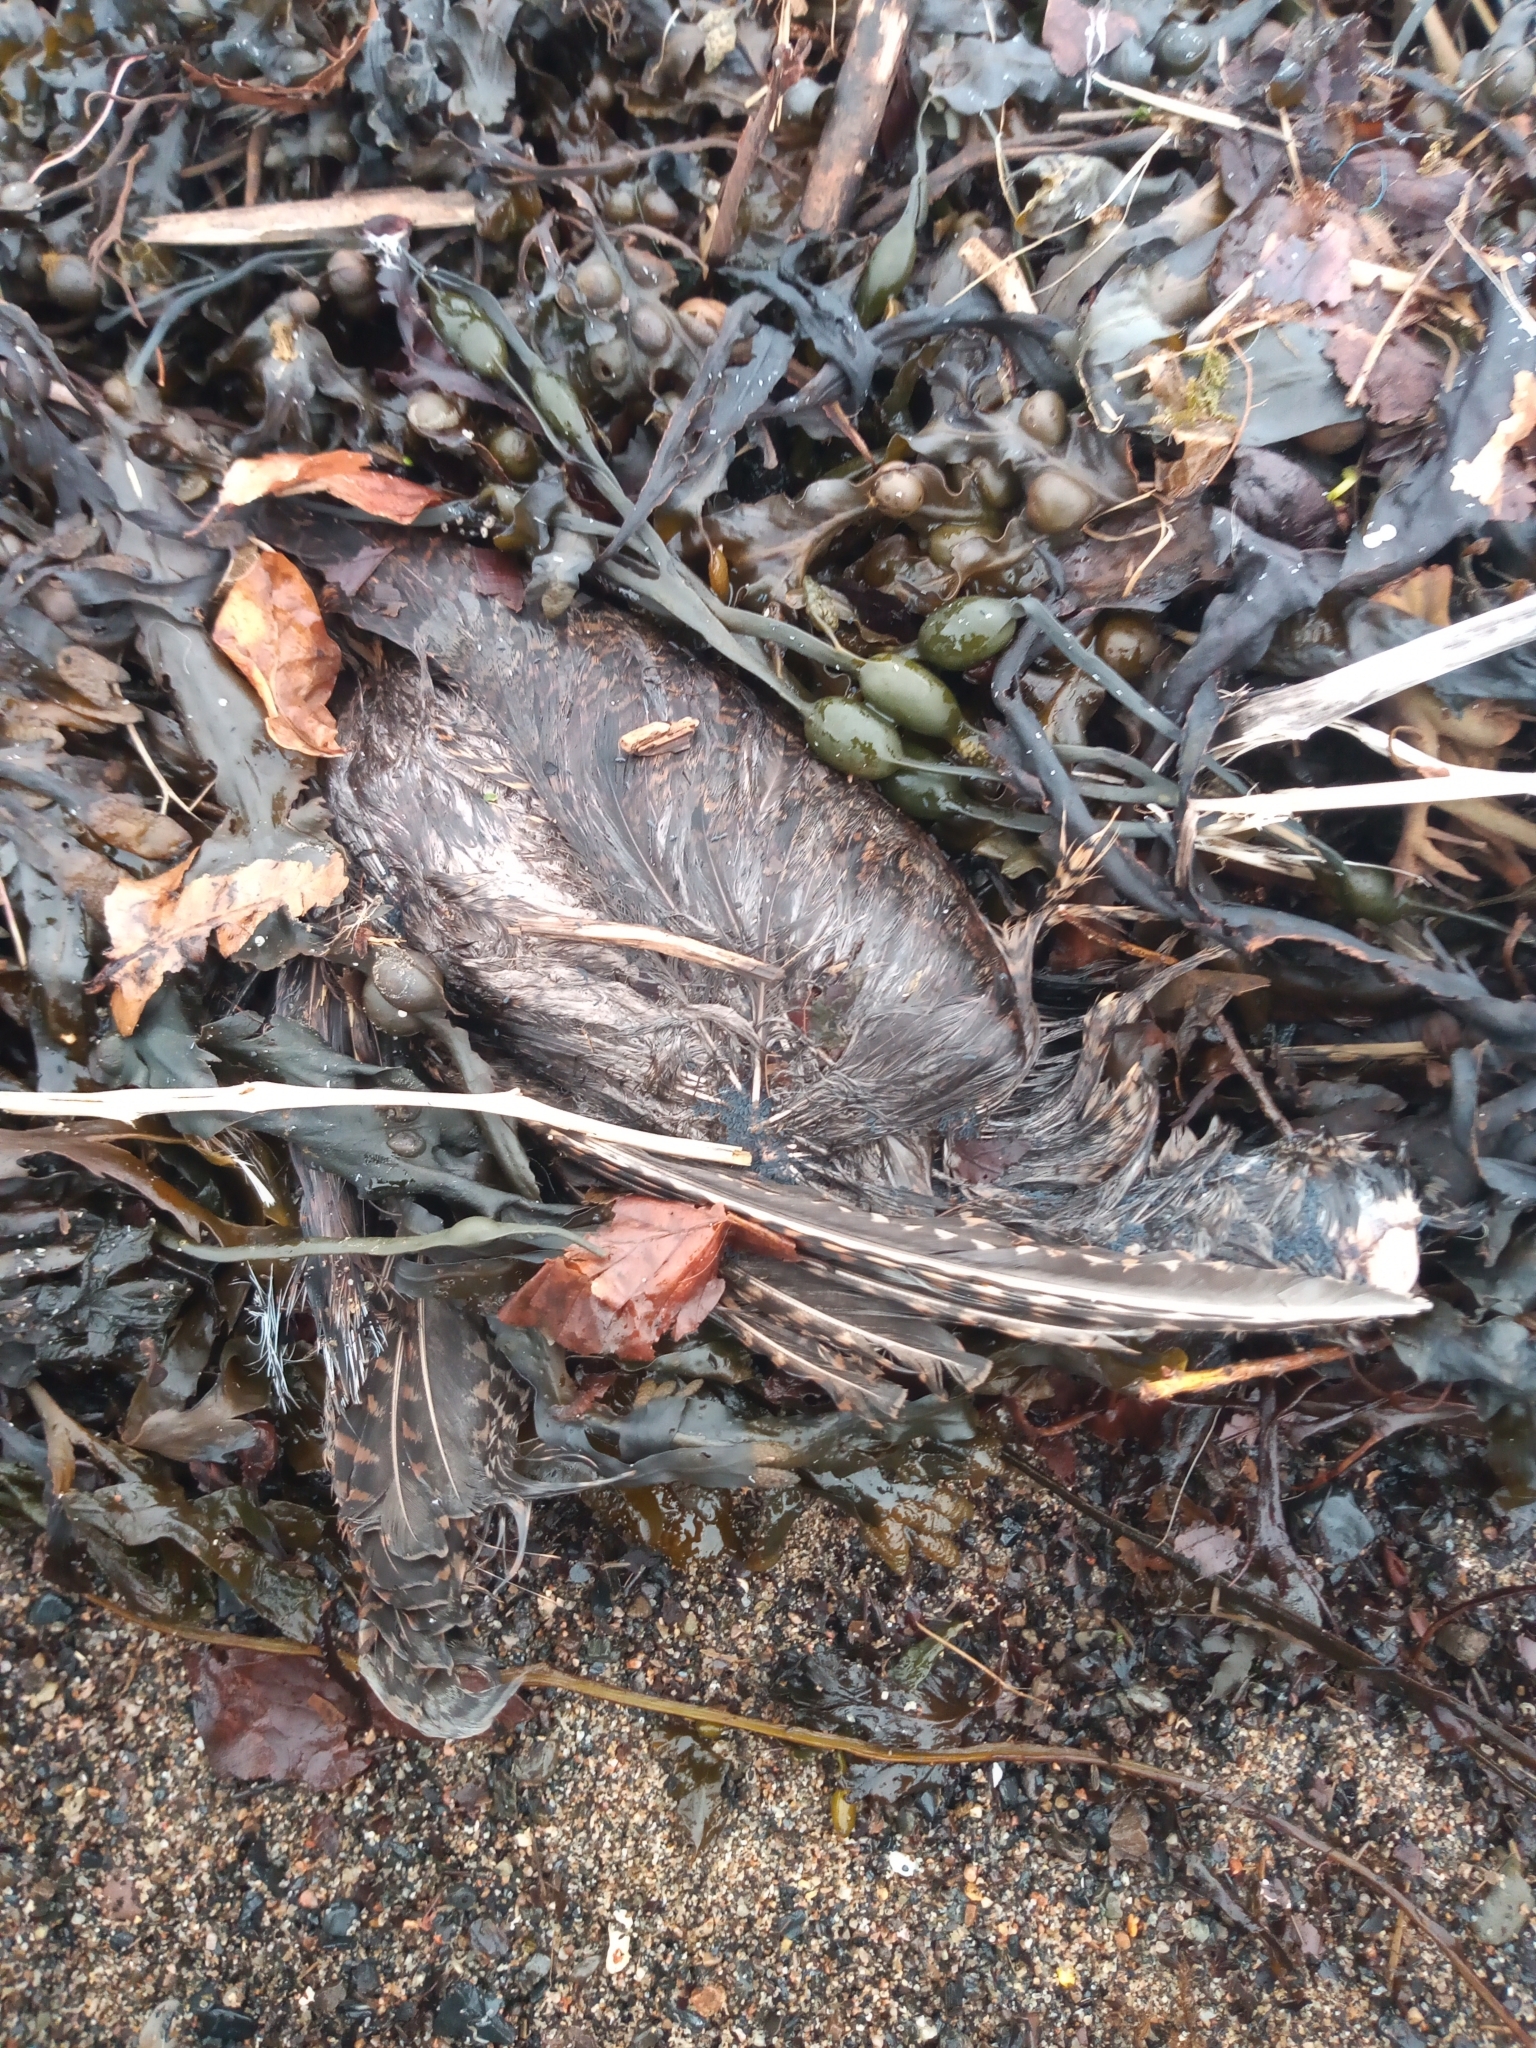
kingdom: Animalia
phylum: Chordata
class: Aves
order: Charadriiformes
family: Scolopacidae
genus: Scolopax
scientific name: Scolopax rusticola
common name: Eurasian woodcock
